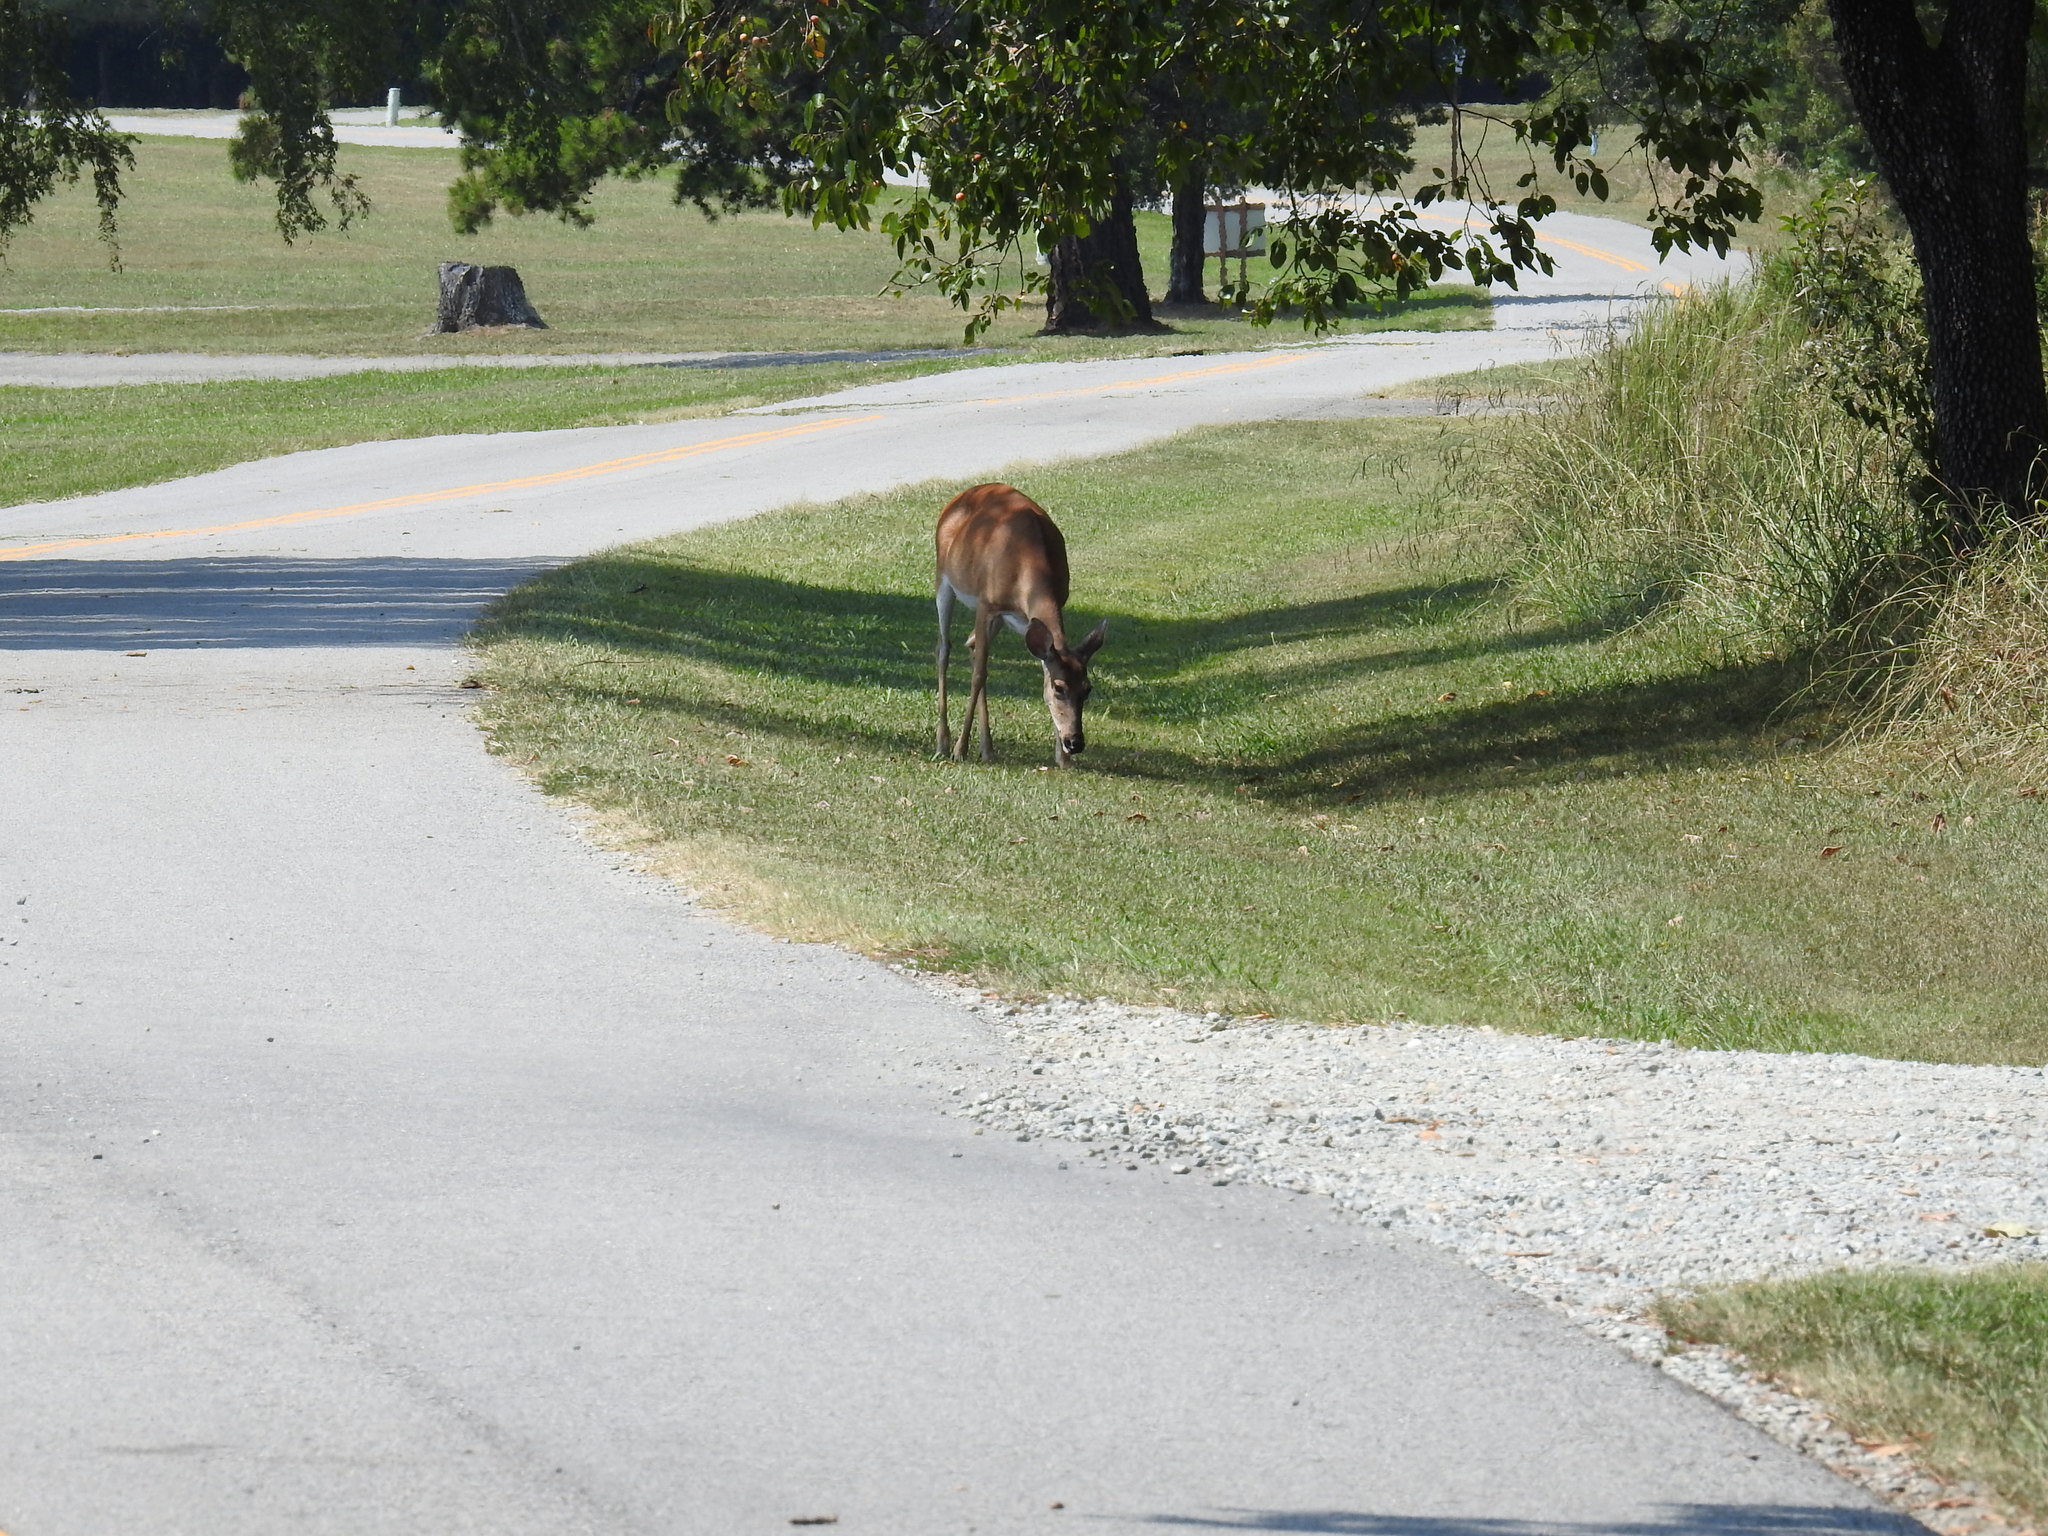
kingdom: Animalia
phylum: Chordata
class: Mammalia
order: Artiodactyla
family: Cervidae
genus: Odocoileus
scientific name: Odocoileus virginianus
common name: White-tailed deer
